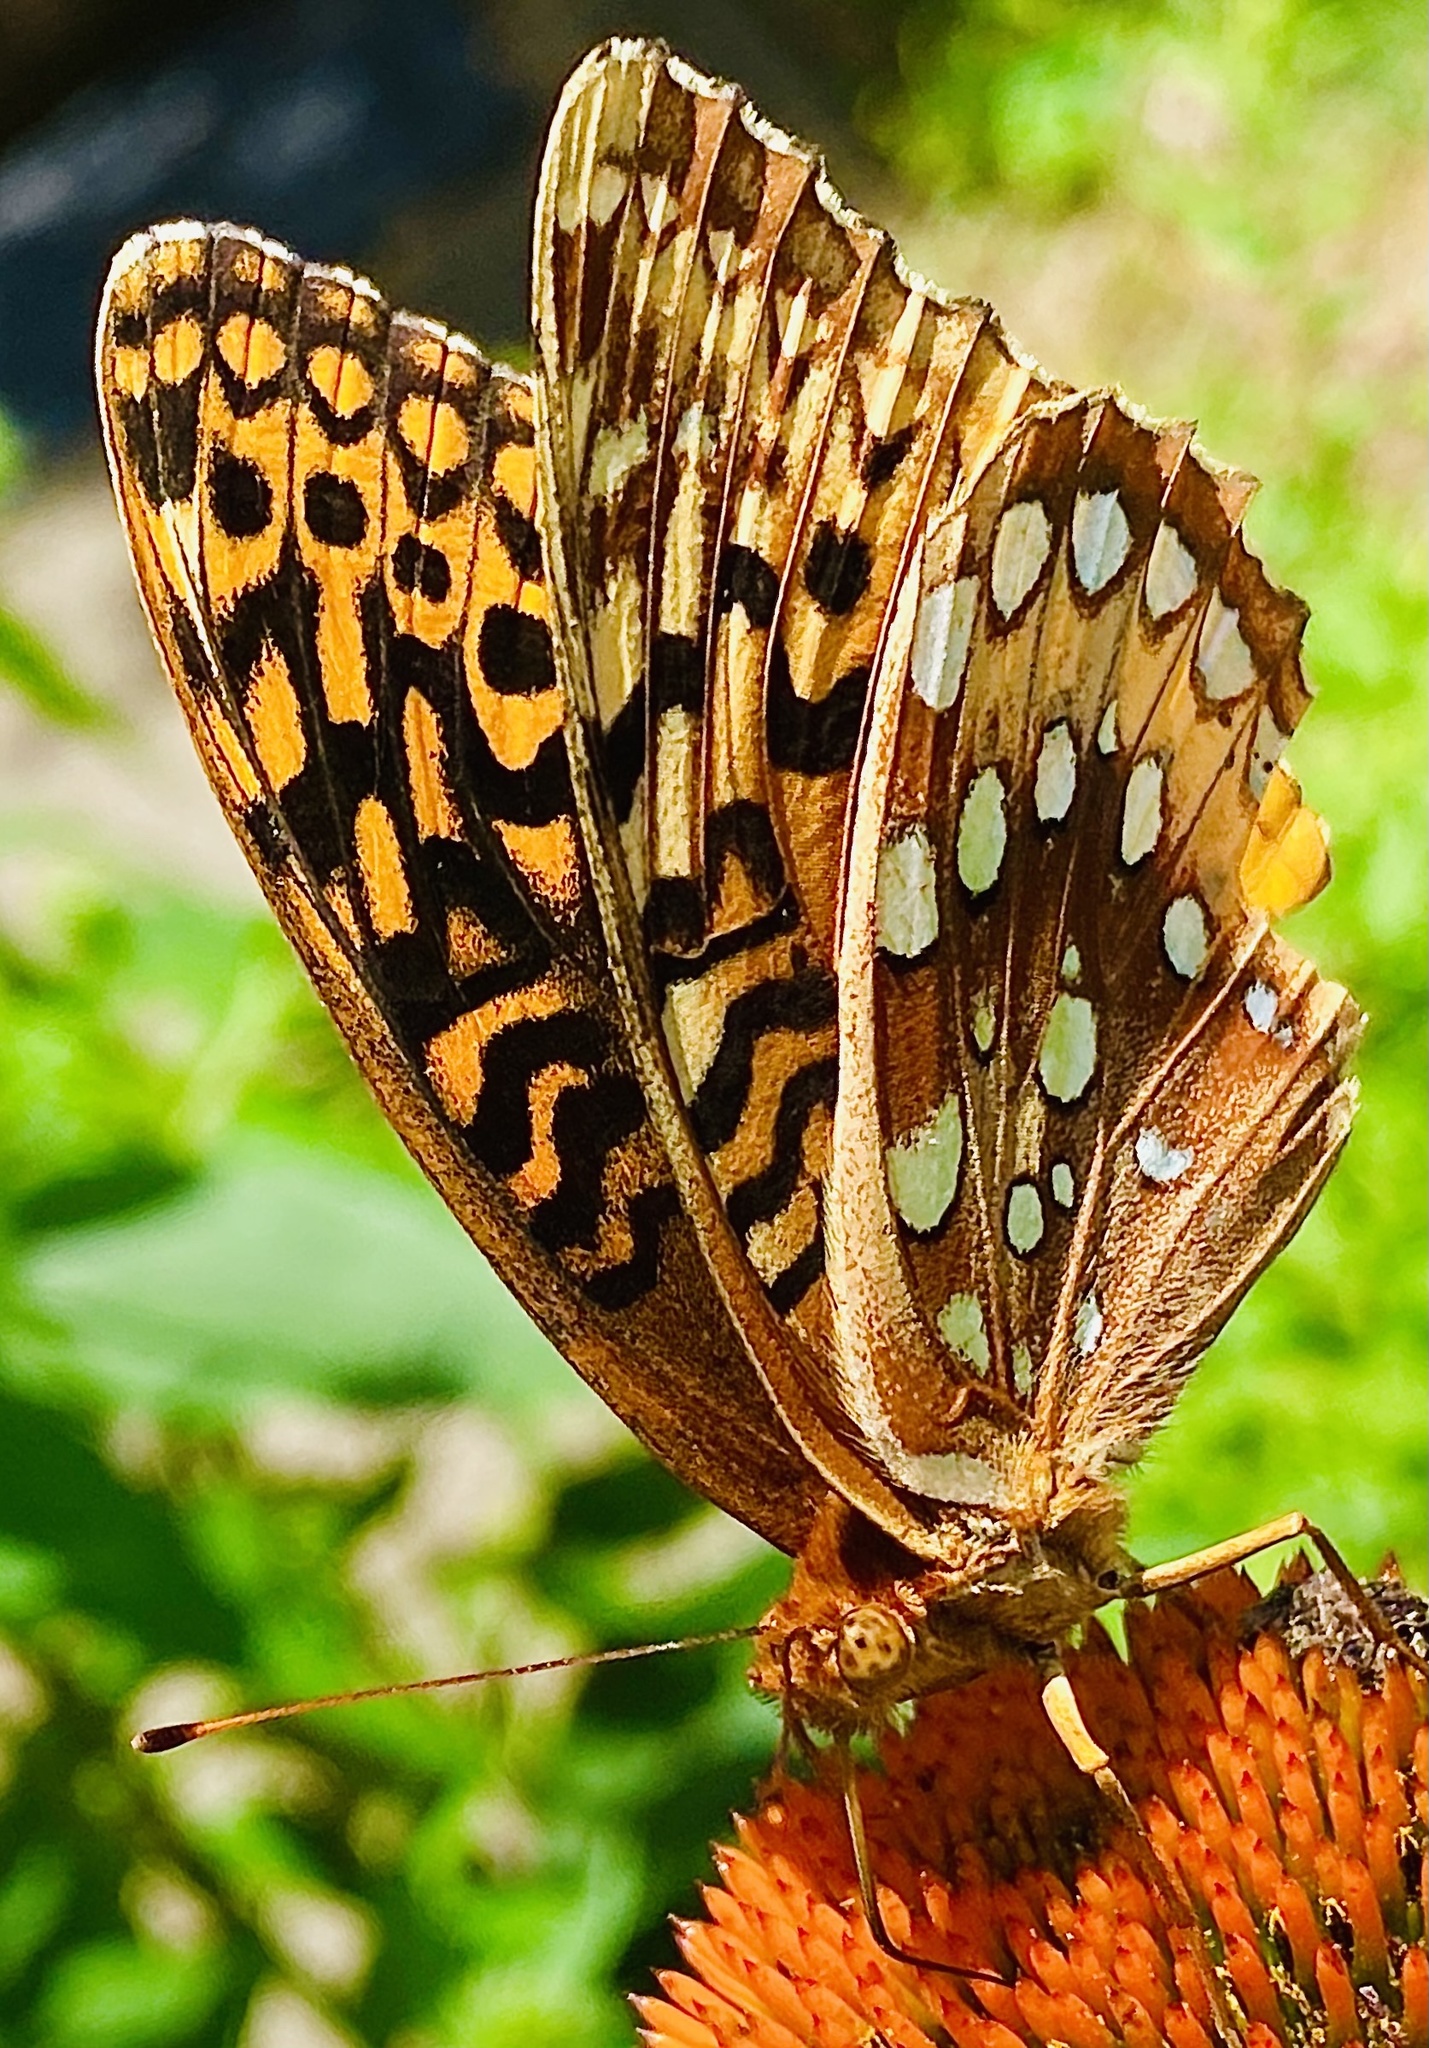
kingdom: Animalia
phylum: Arthropoda
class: Insecta
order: Lepidoptera
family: Nymphalidae
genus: Speyeria
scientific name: Speyeria cybele
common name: Great spangled fritillary
